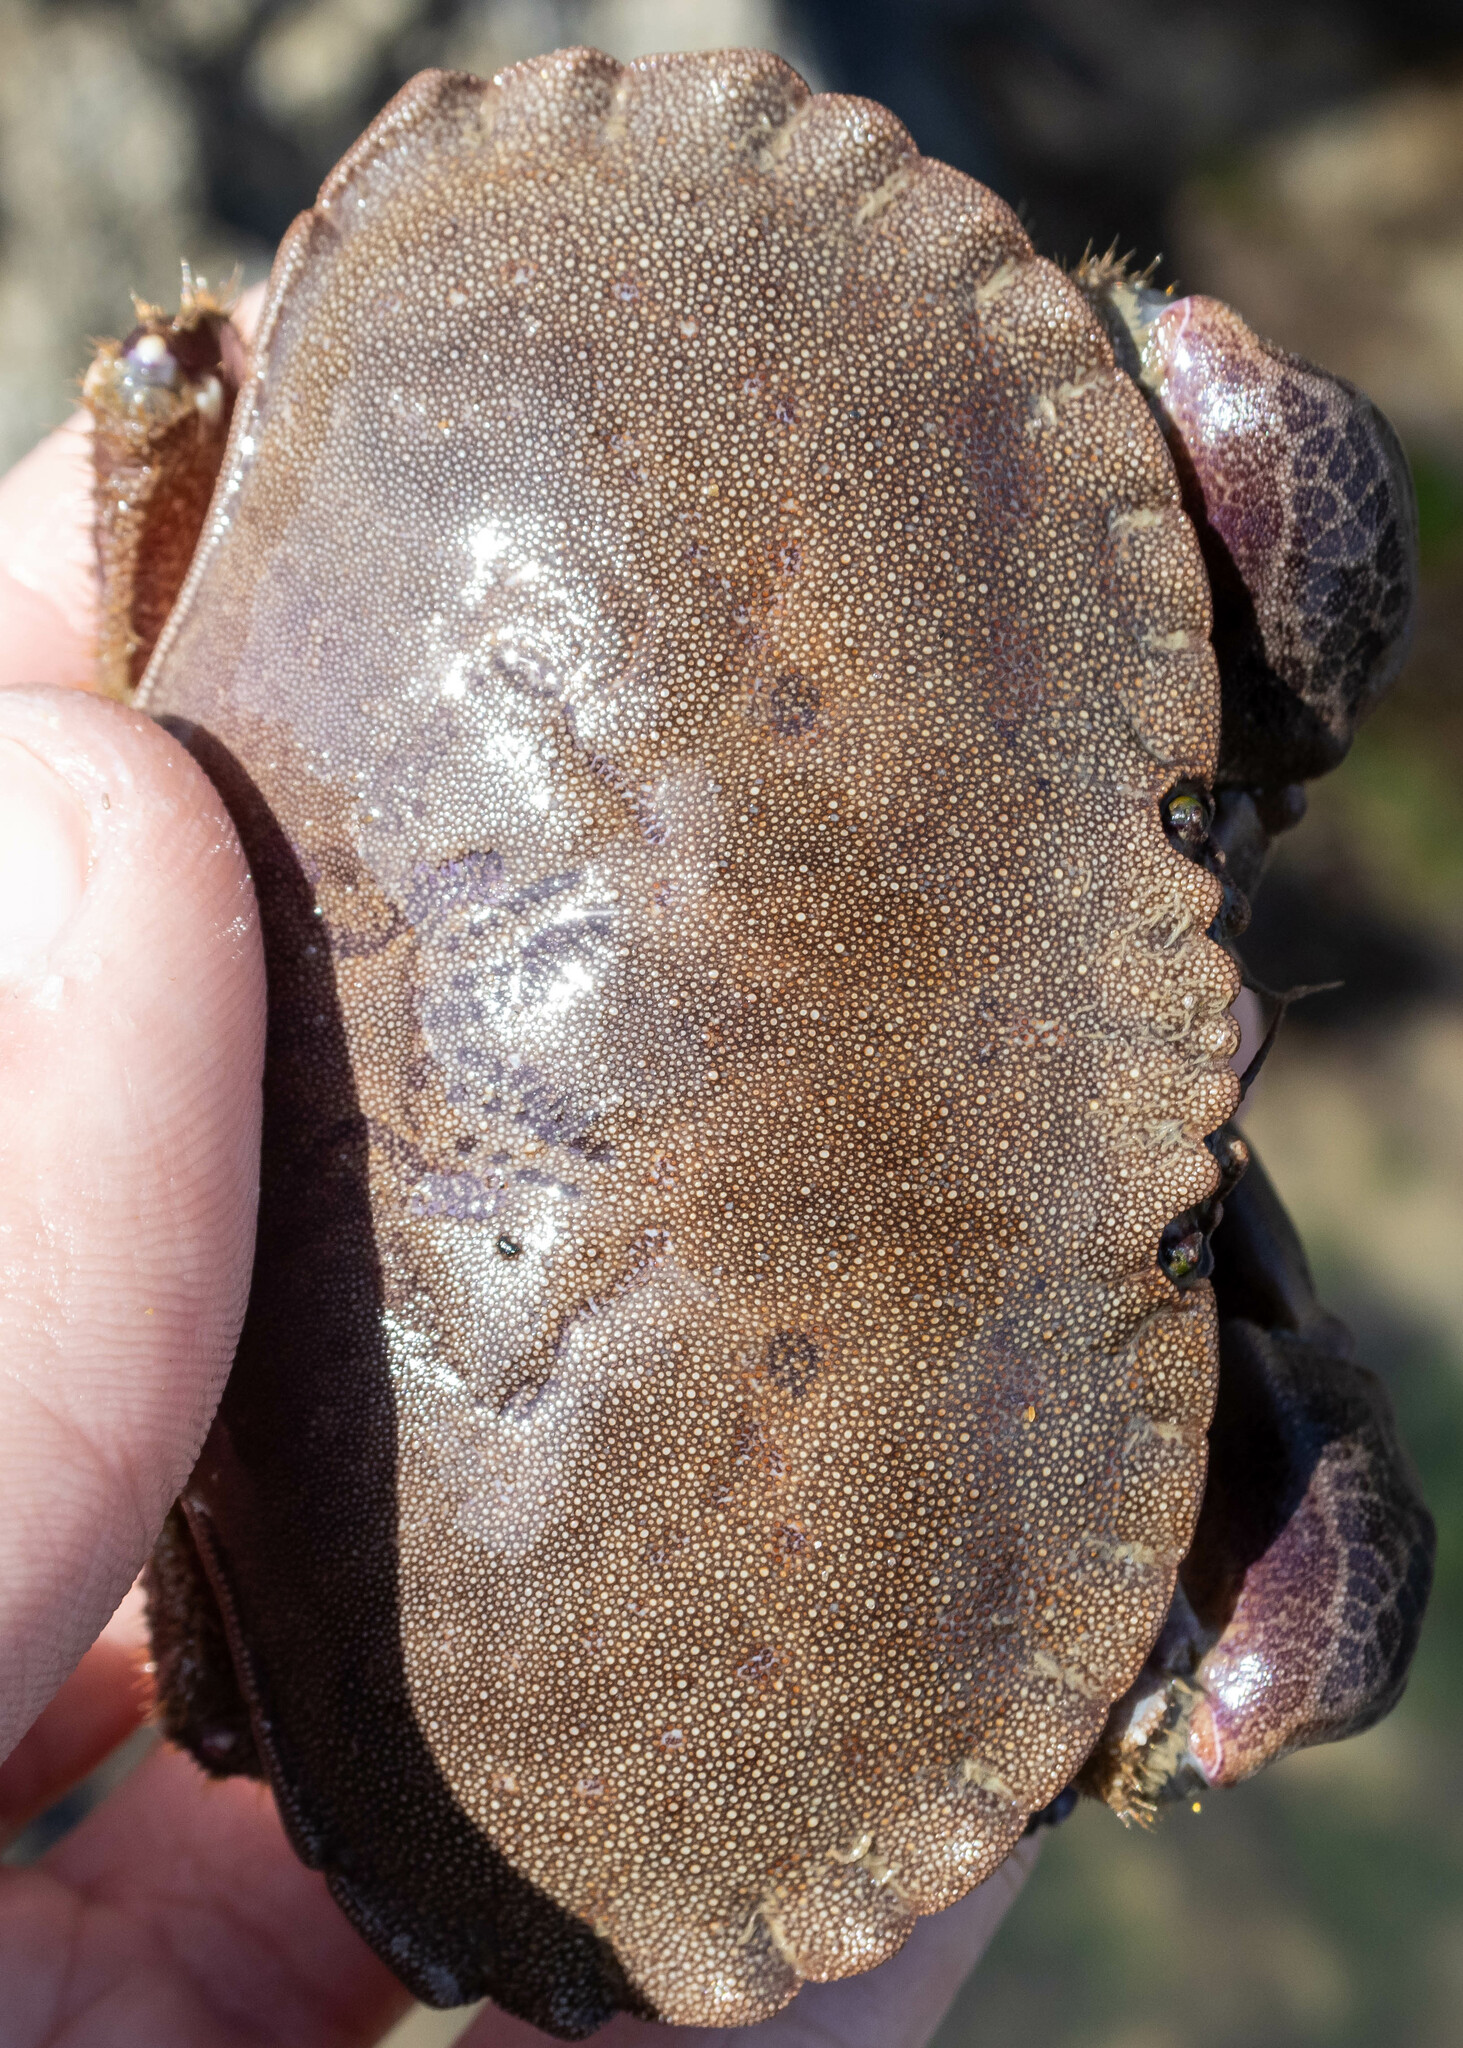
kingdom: Animalia
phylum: Arthropoda
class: Malacostraca
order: Decapoda
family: Cancridae
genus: Cancer
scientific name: Cancer pagurus
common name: Edible crab
